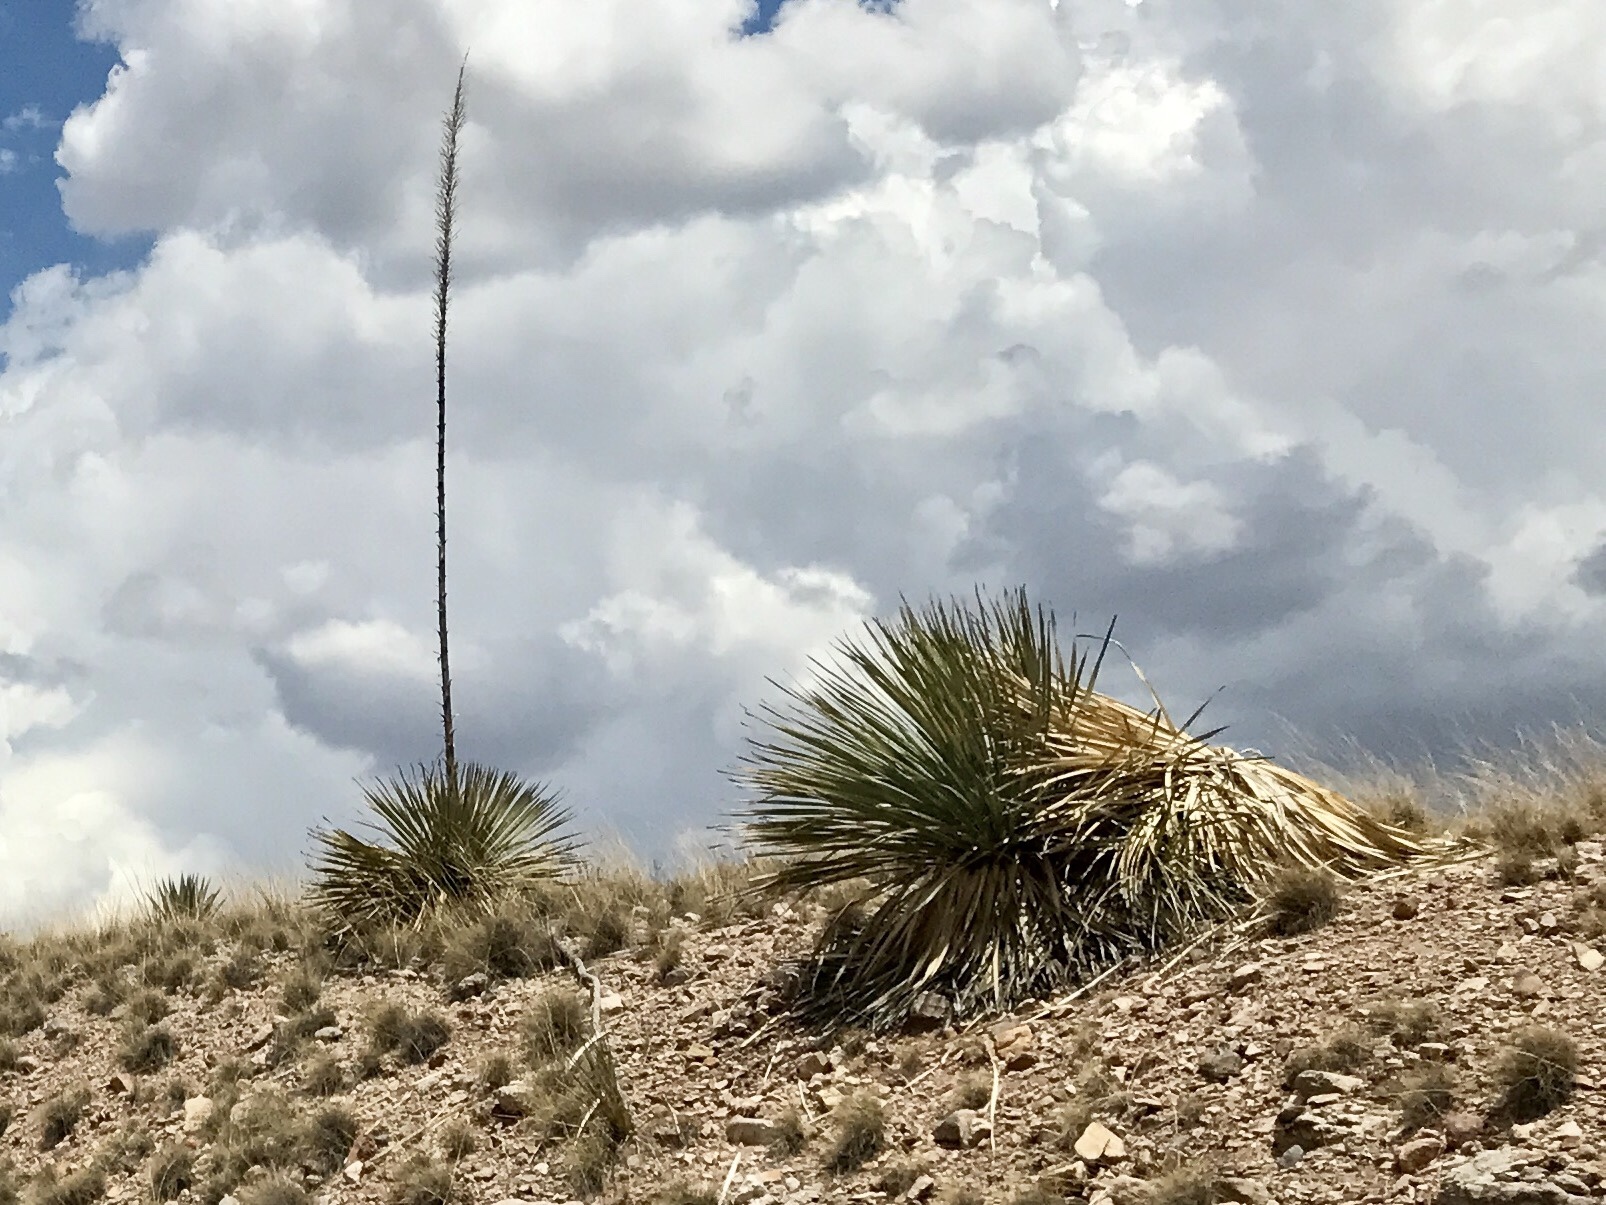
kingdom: Plantae
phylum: Tracheophyta
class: Liliopsida
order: Asparagales
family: Asparagaceae
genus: Dasylirion
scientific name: Dasylirion wheeleri
